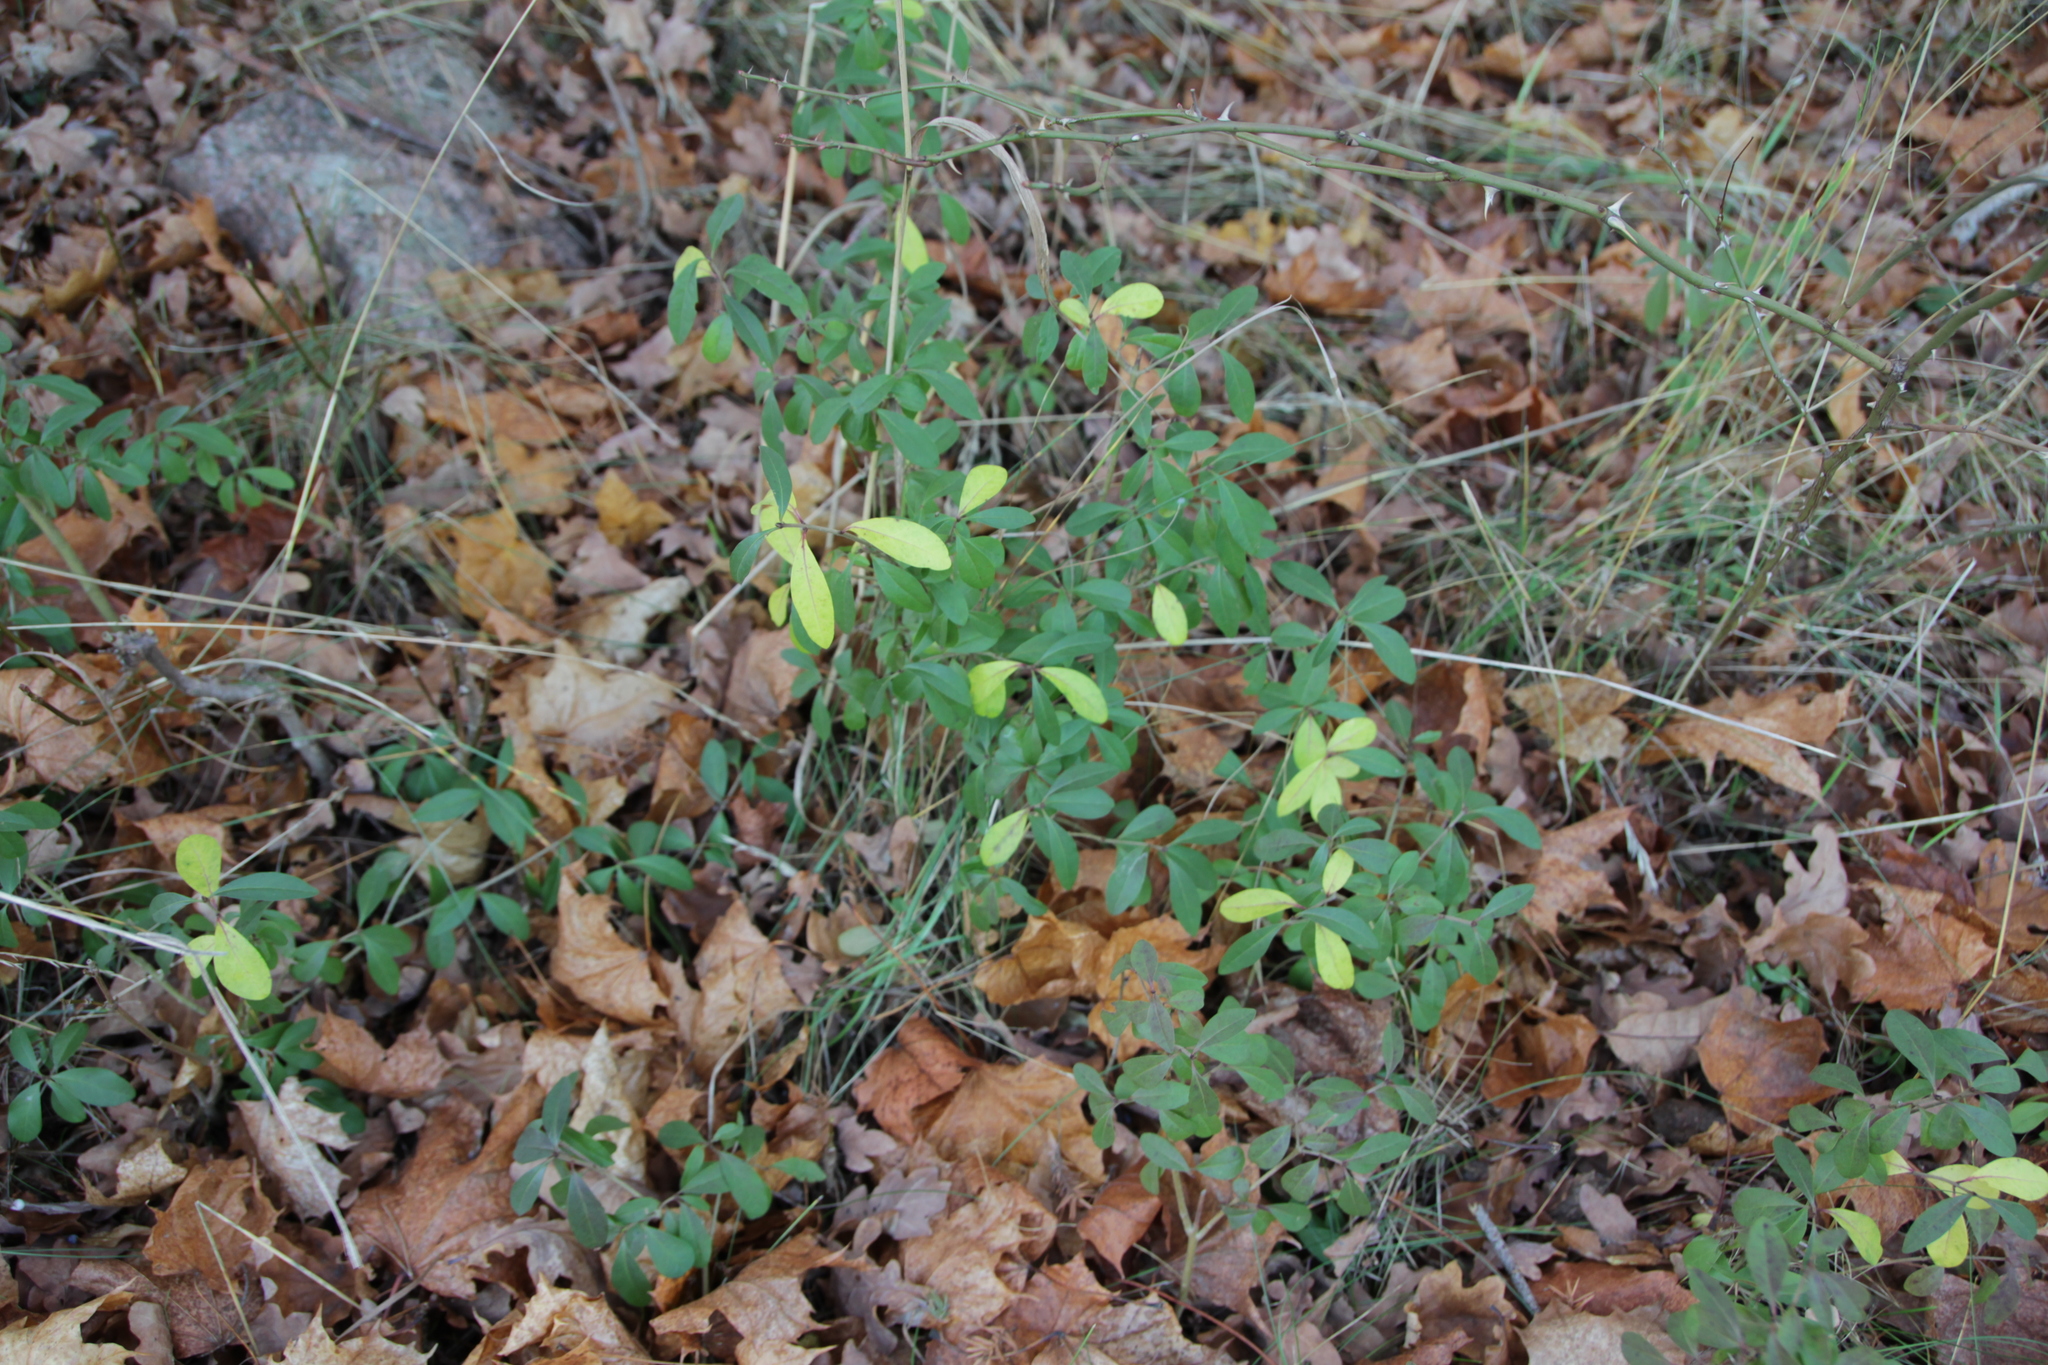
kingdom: Plantae
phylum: Tracheophyta
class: Magnoliopsida
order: Lamiales
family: Oleaceae
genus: Ligustrum
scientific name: Ligustrum vulgare
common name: Wild privet
